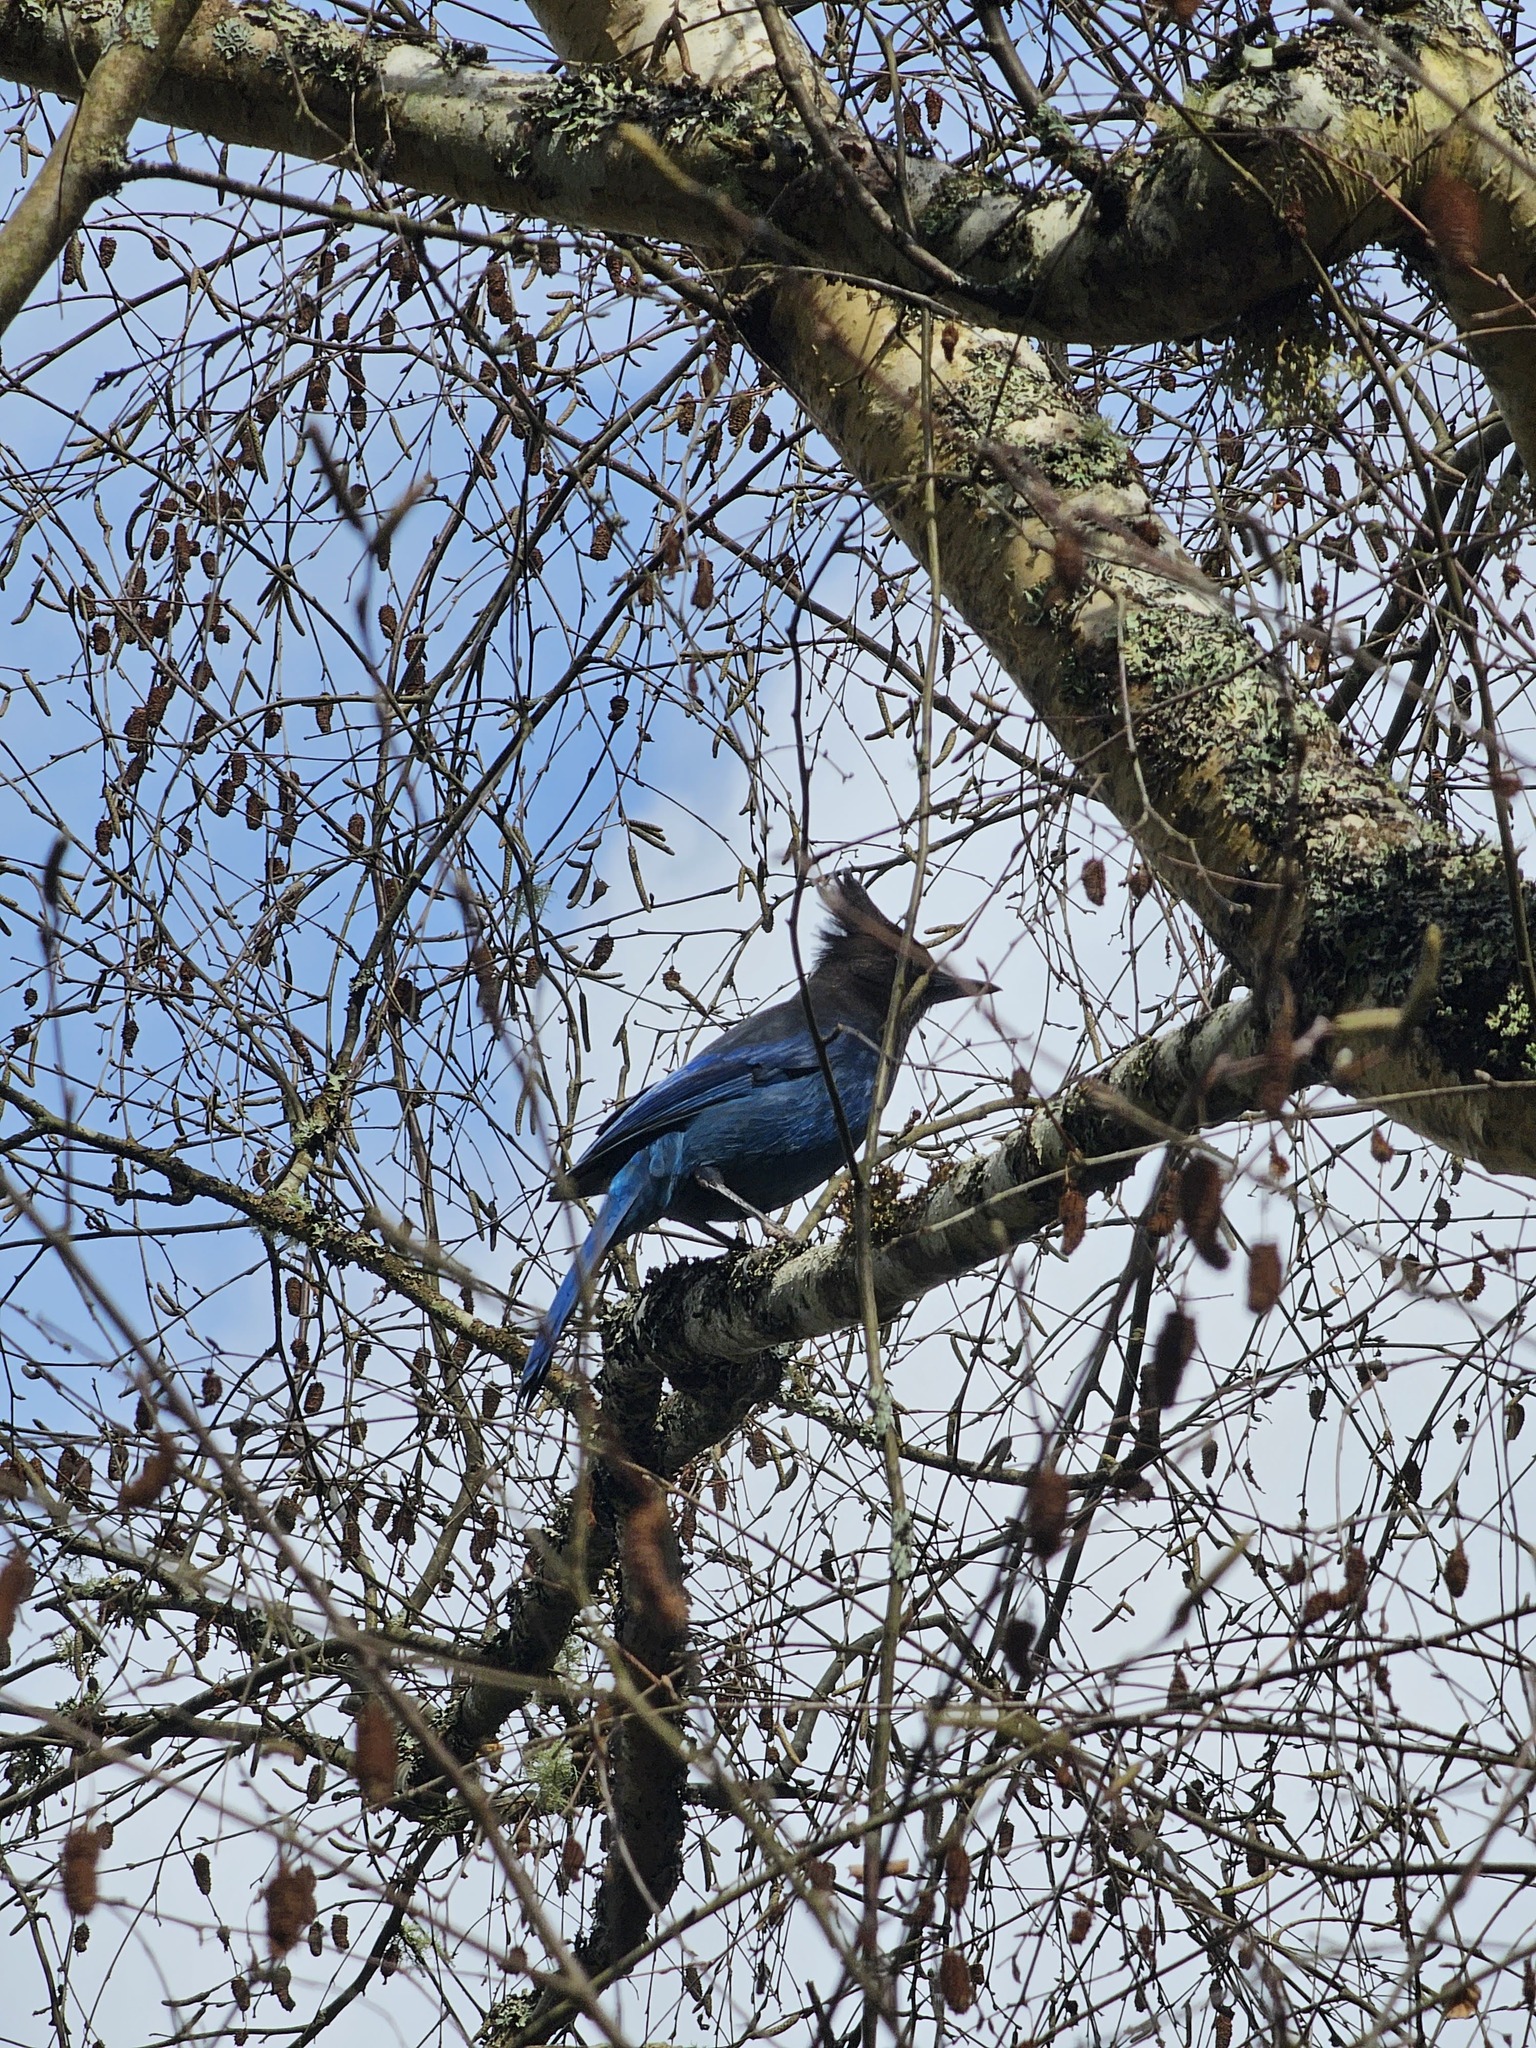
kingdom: Animalia
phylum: Chordata
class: Aves
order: Passeriformes
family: Corvidae
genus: Cyanocitta
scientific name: Cyanocitta stelleri
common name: Steller's jay
